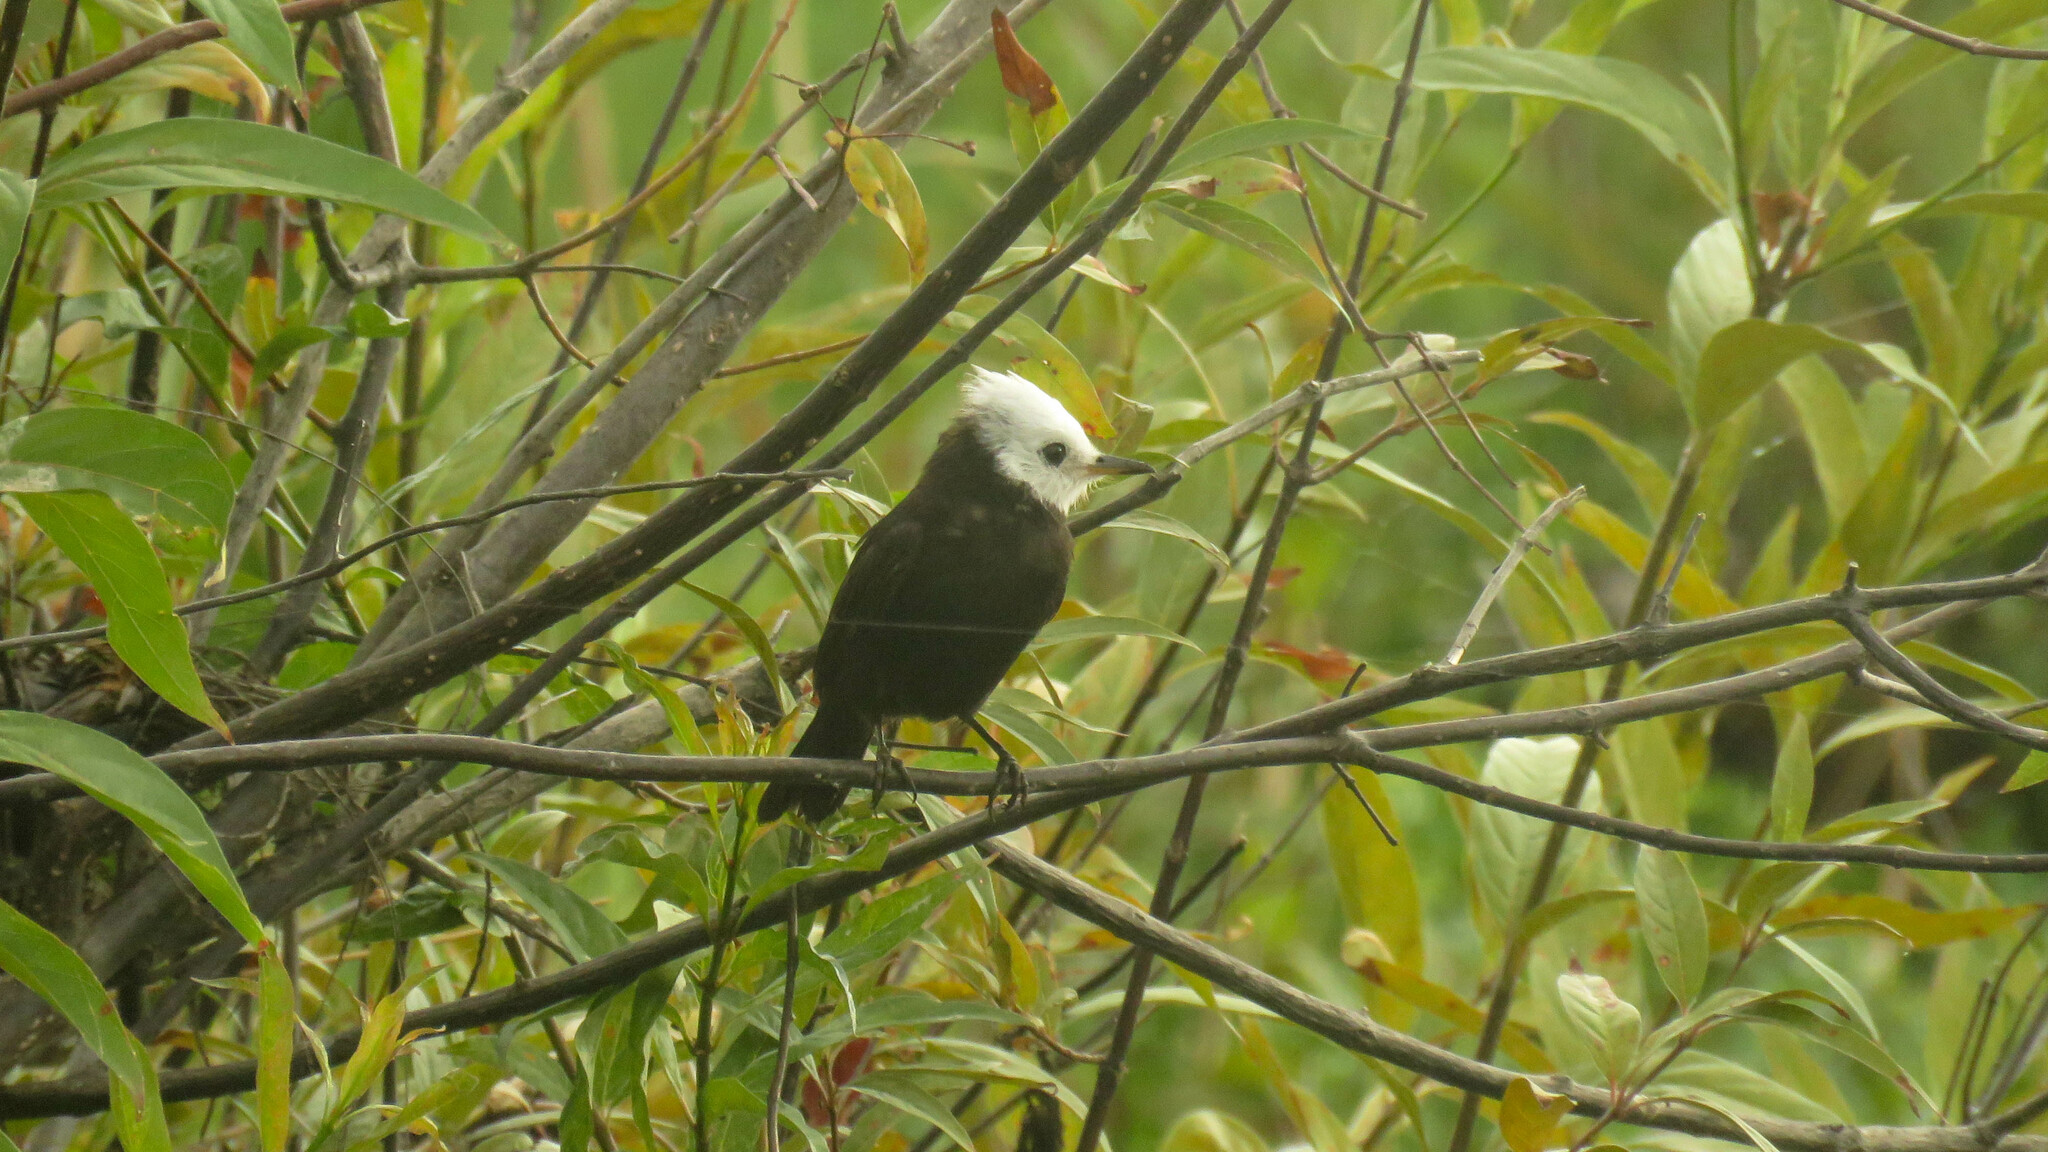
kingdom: Animalia
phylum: Chordata
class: Aves
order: Passeriformes
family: Tyrannidae
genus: Arundinicola
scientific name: Arundinicola leucocephala
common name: White-headed marsh tyrant
